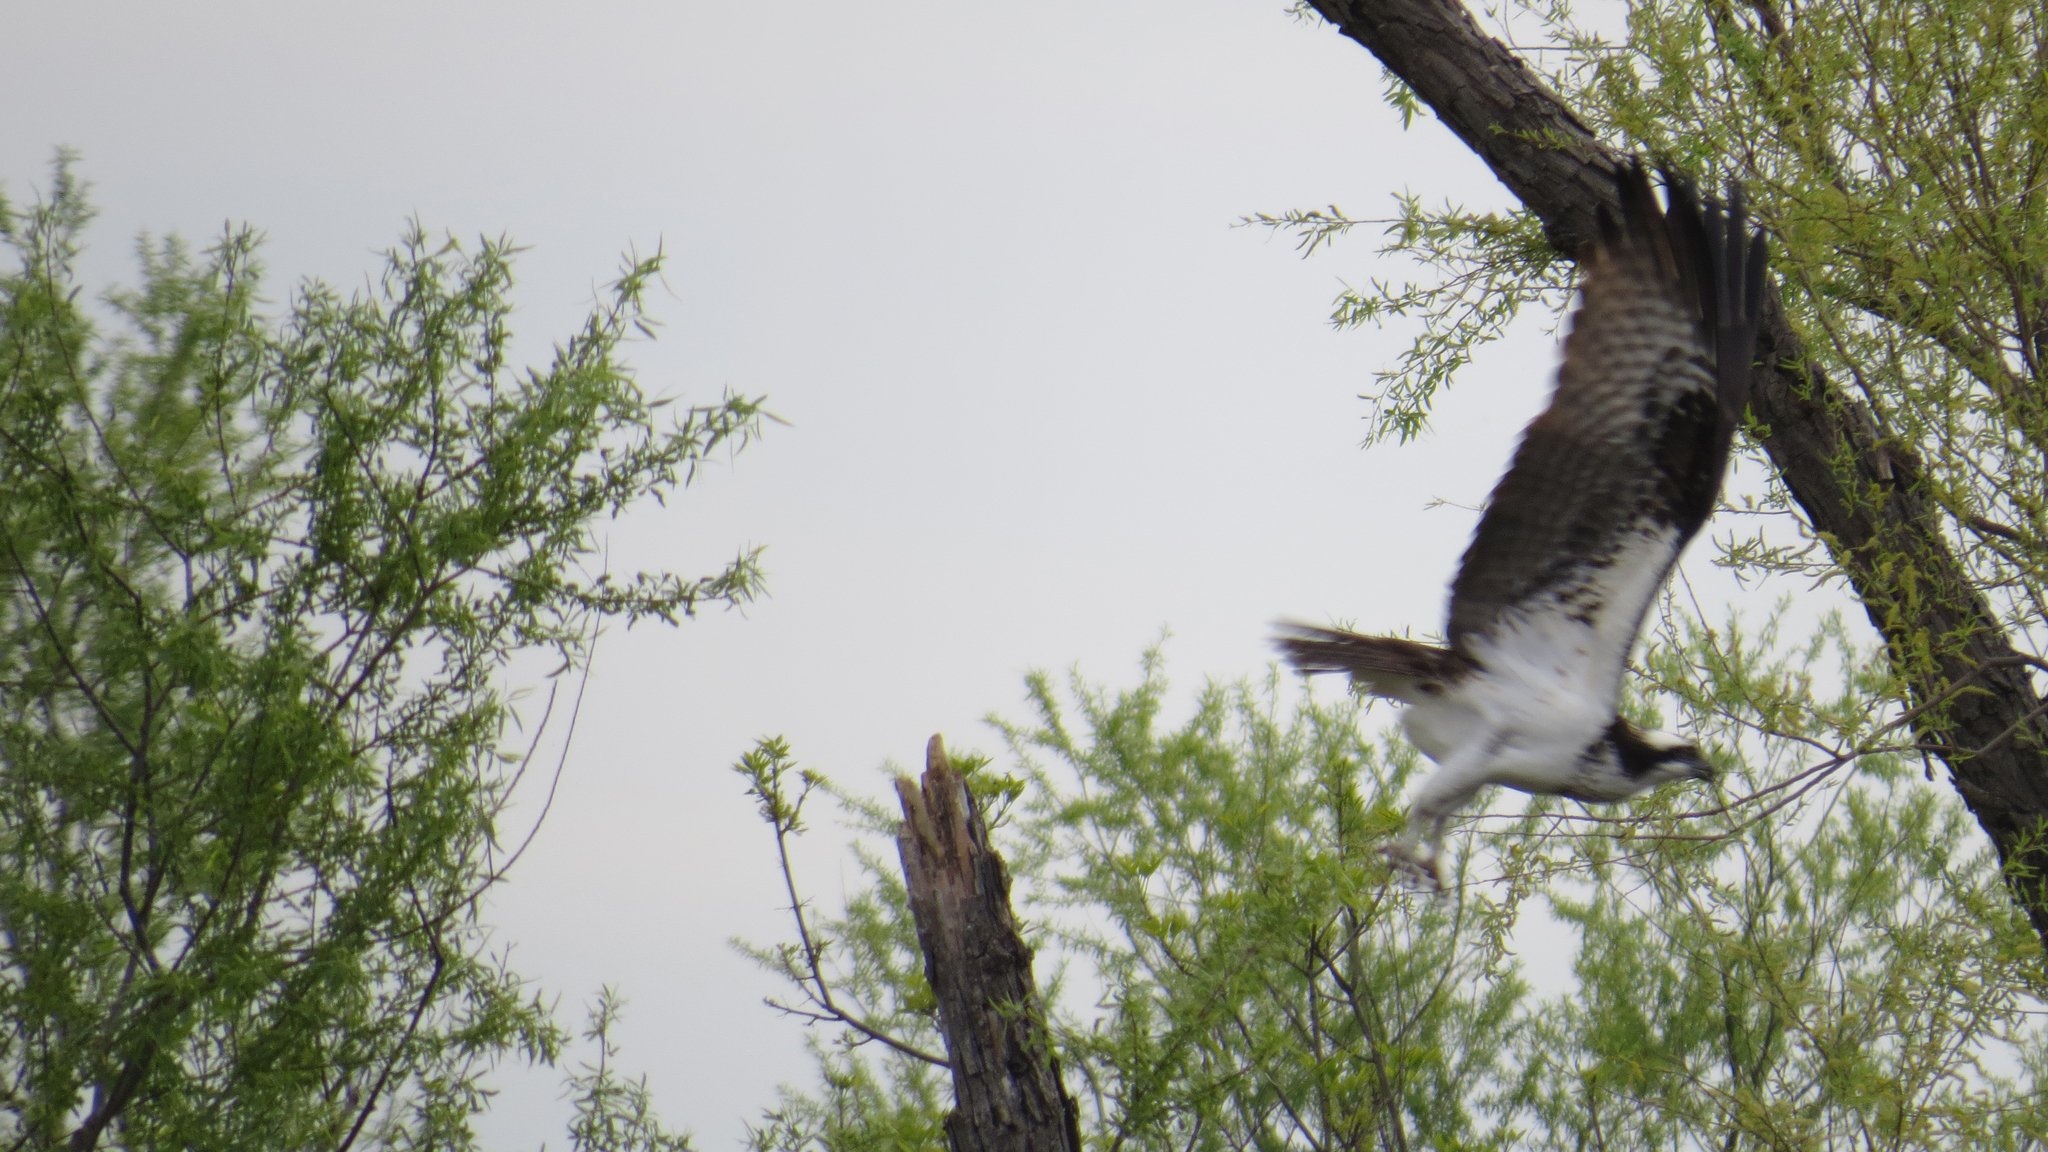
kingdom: Animalia
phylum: Chordata
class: Aves
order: Accipitriformes
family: Pandionidae
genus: Pandion
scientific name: Pandion haliaetus
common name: Osprey
